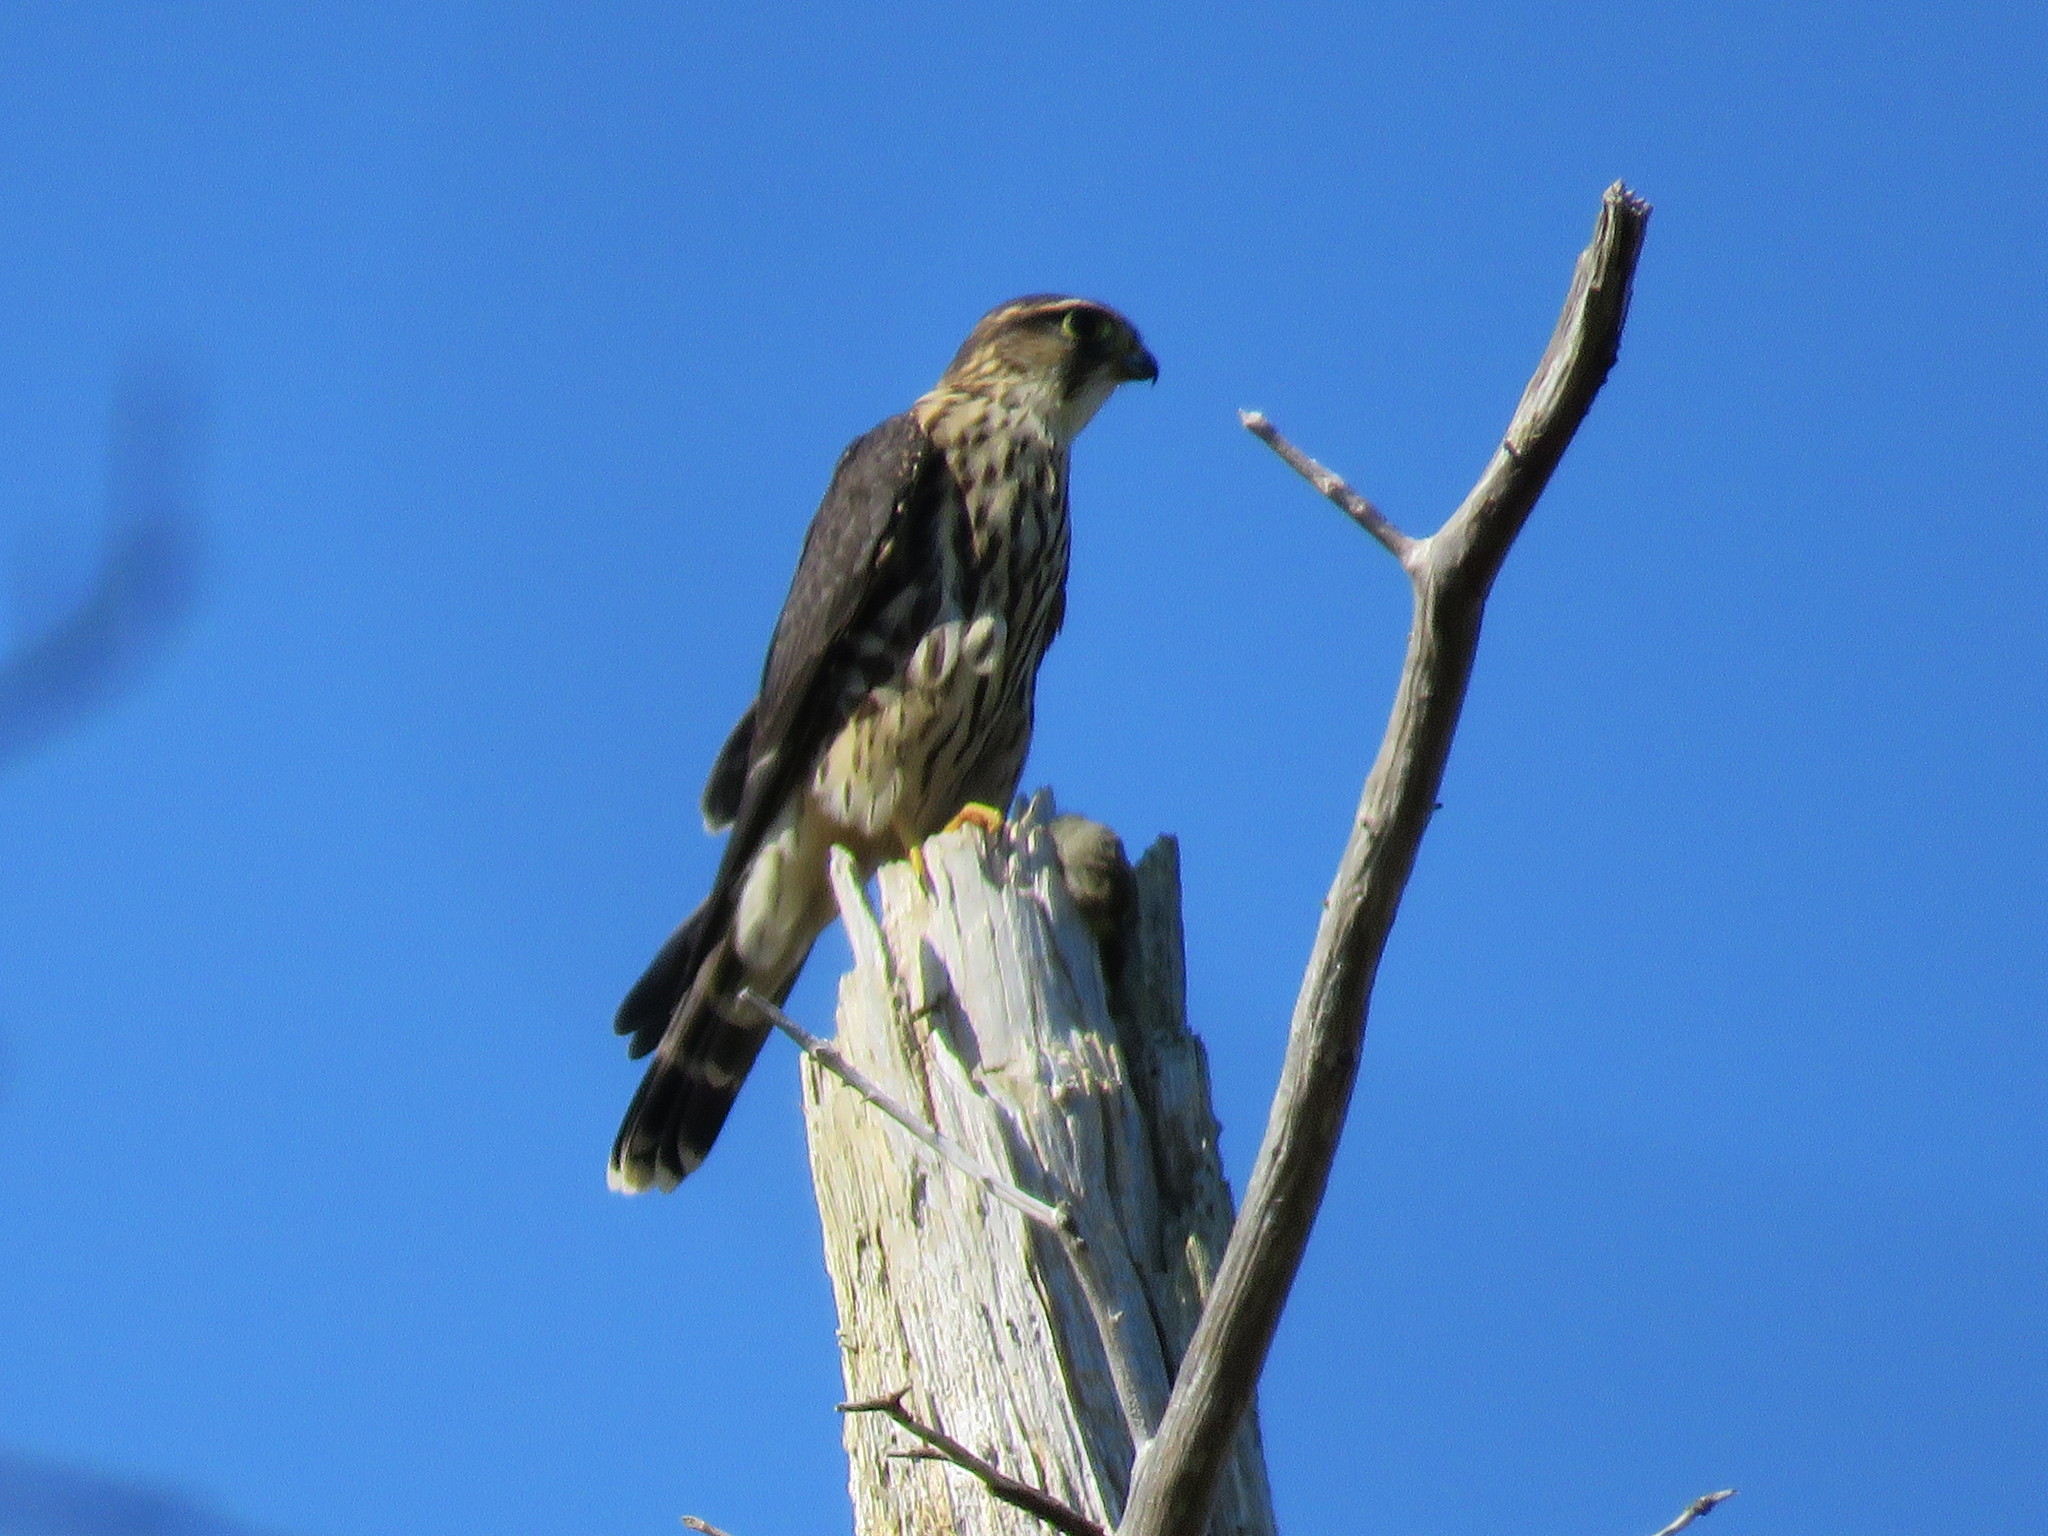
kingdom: Animalia
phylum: Chordata
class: Aves
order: Falconiformes
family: Falconidae
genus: Falco
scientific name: Falco columbarius
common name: Merlin
